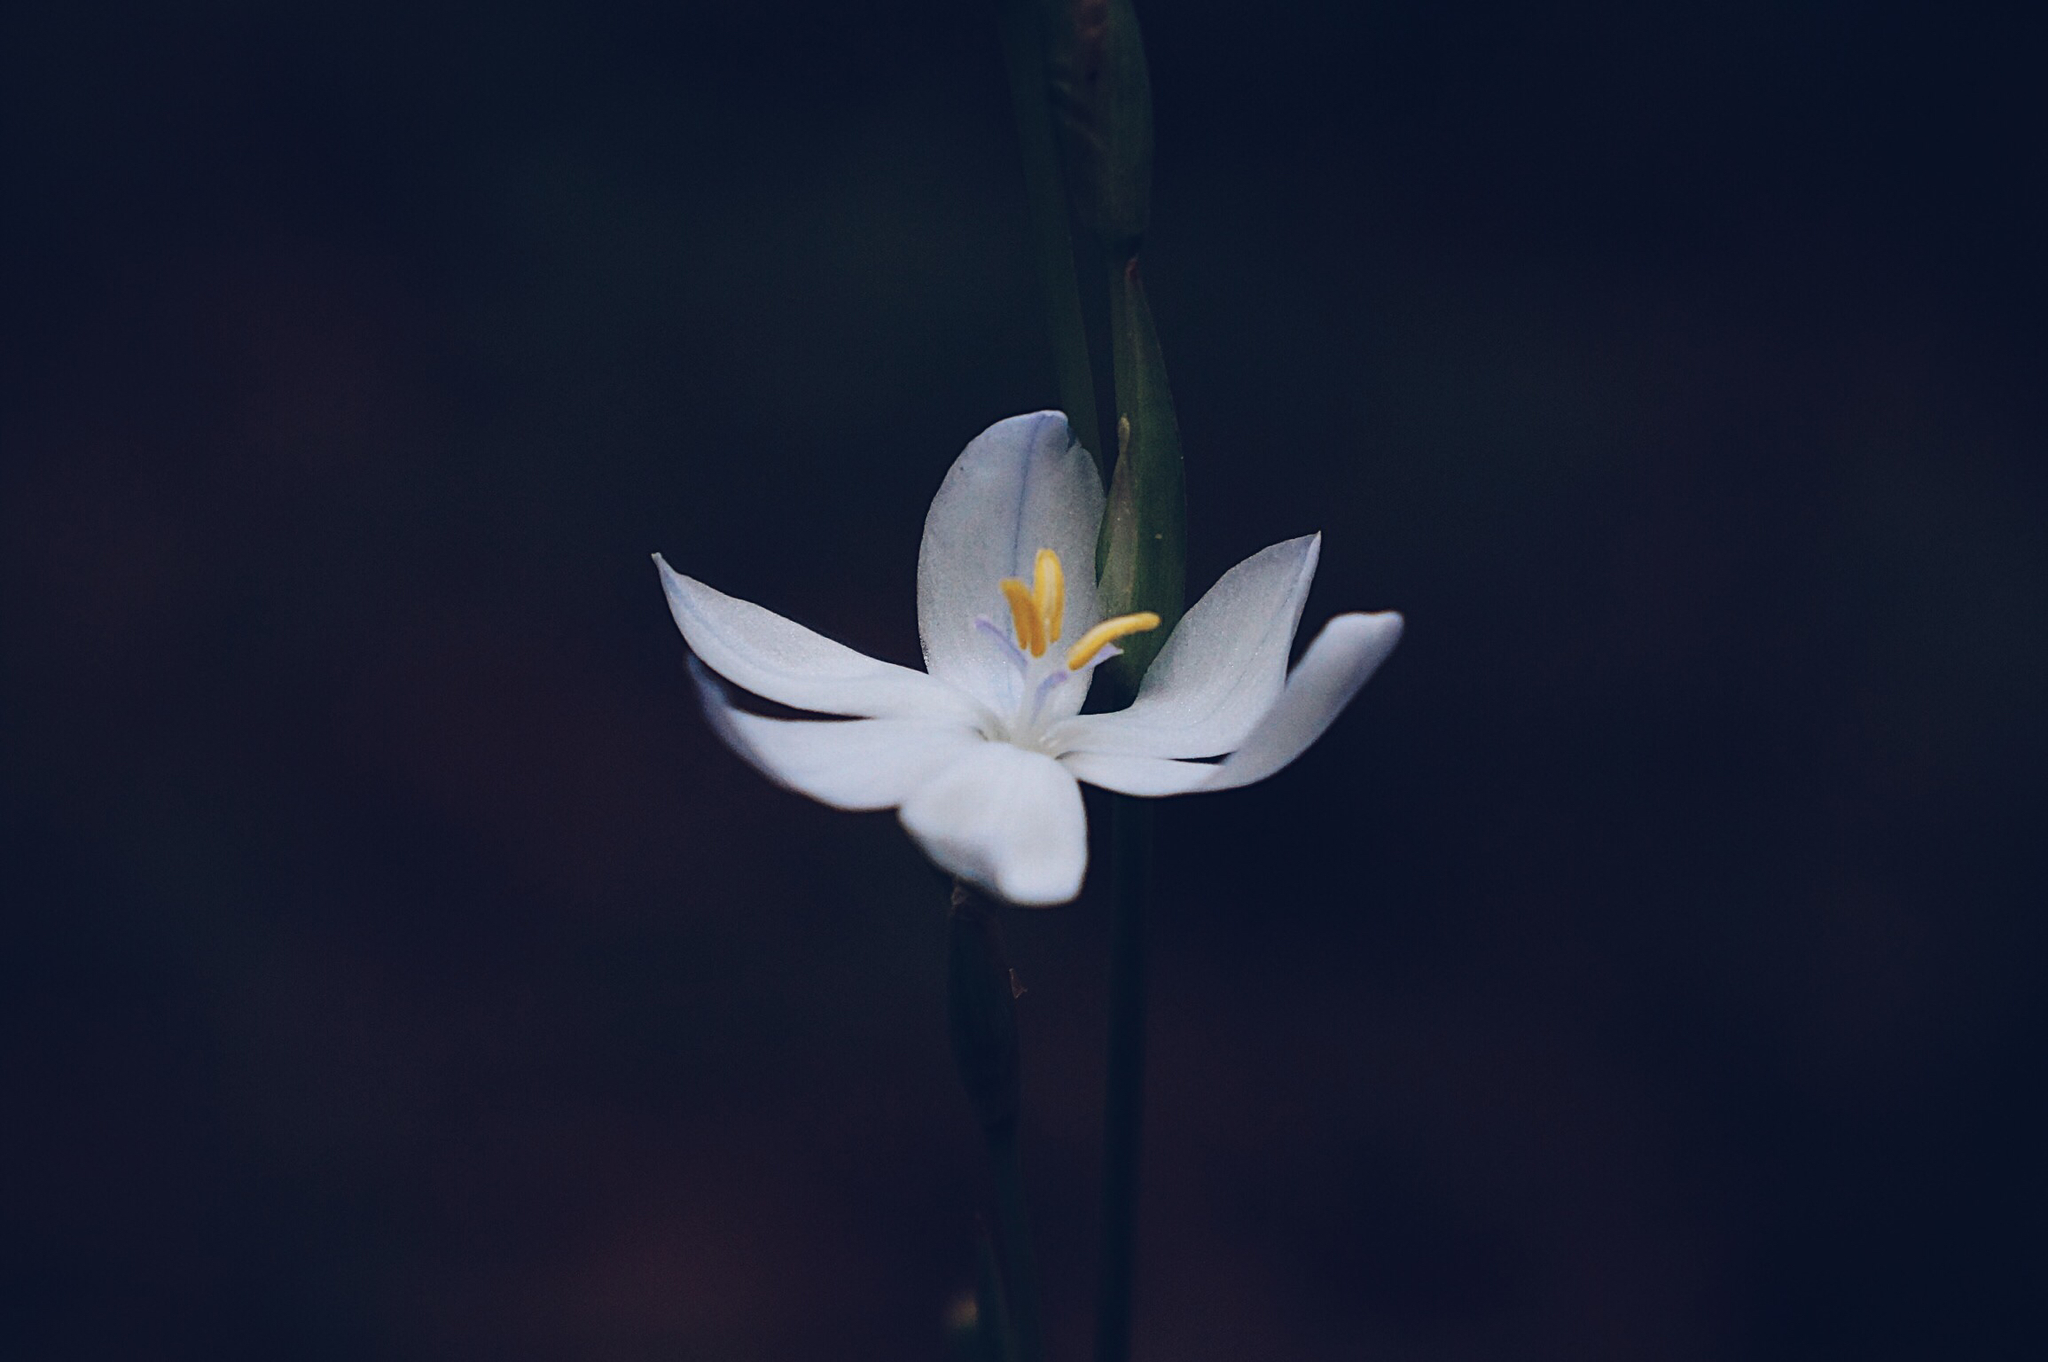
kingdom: Plantae
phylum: Tracheophyta
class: Liliopsida
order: Asparagales
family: Iridaceae
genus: Orthrosanthus
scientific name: Orthrosanthus exsertus
